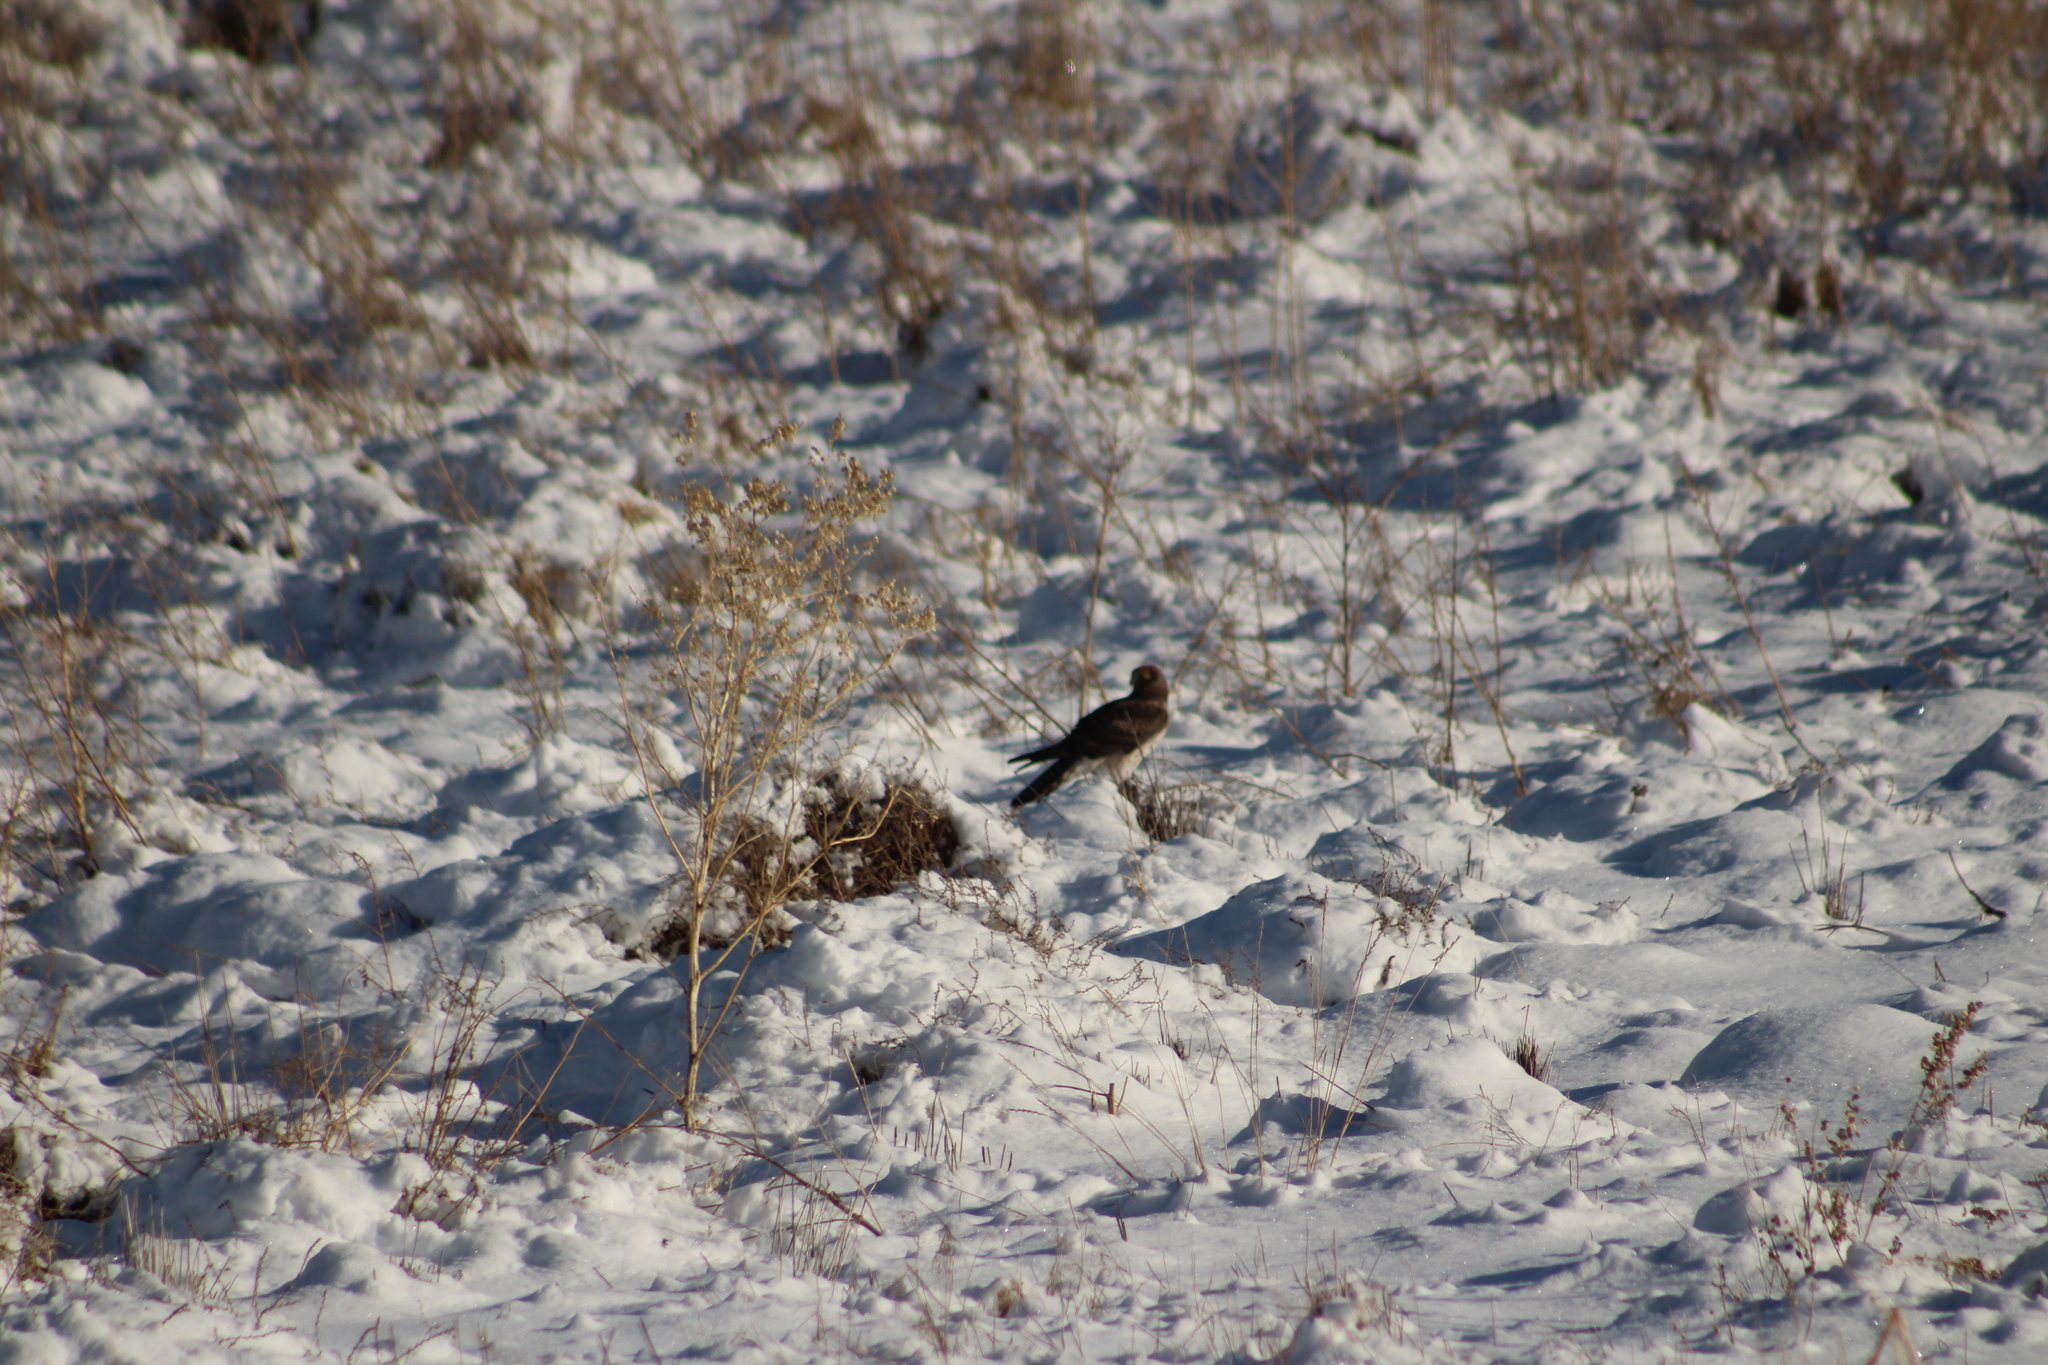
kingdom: Animalia
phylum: Chordata
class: Aves
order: Accipitriformes
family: Accipitridae
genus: Circus
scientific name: Circus cyaneus
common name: Hen harrier
